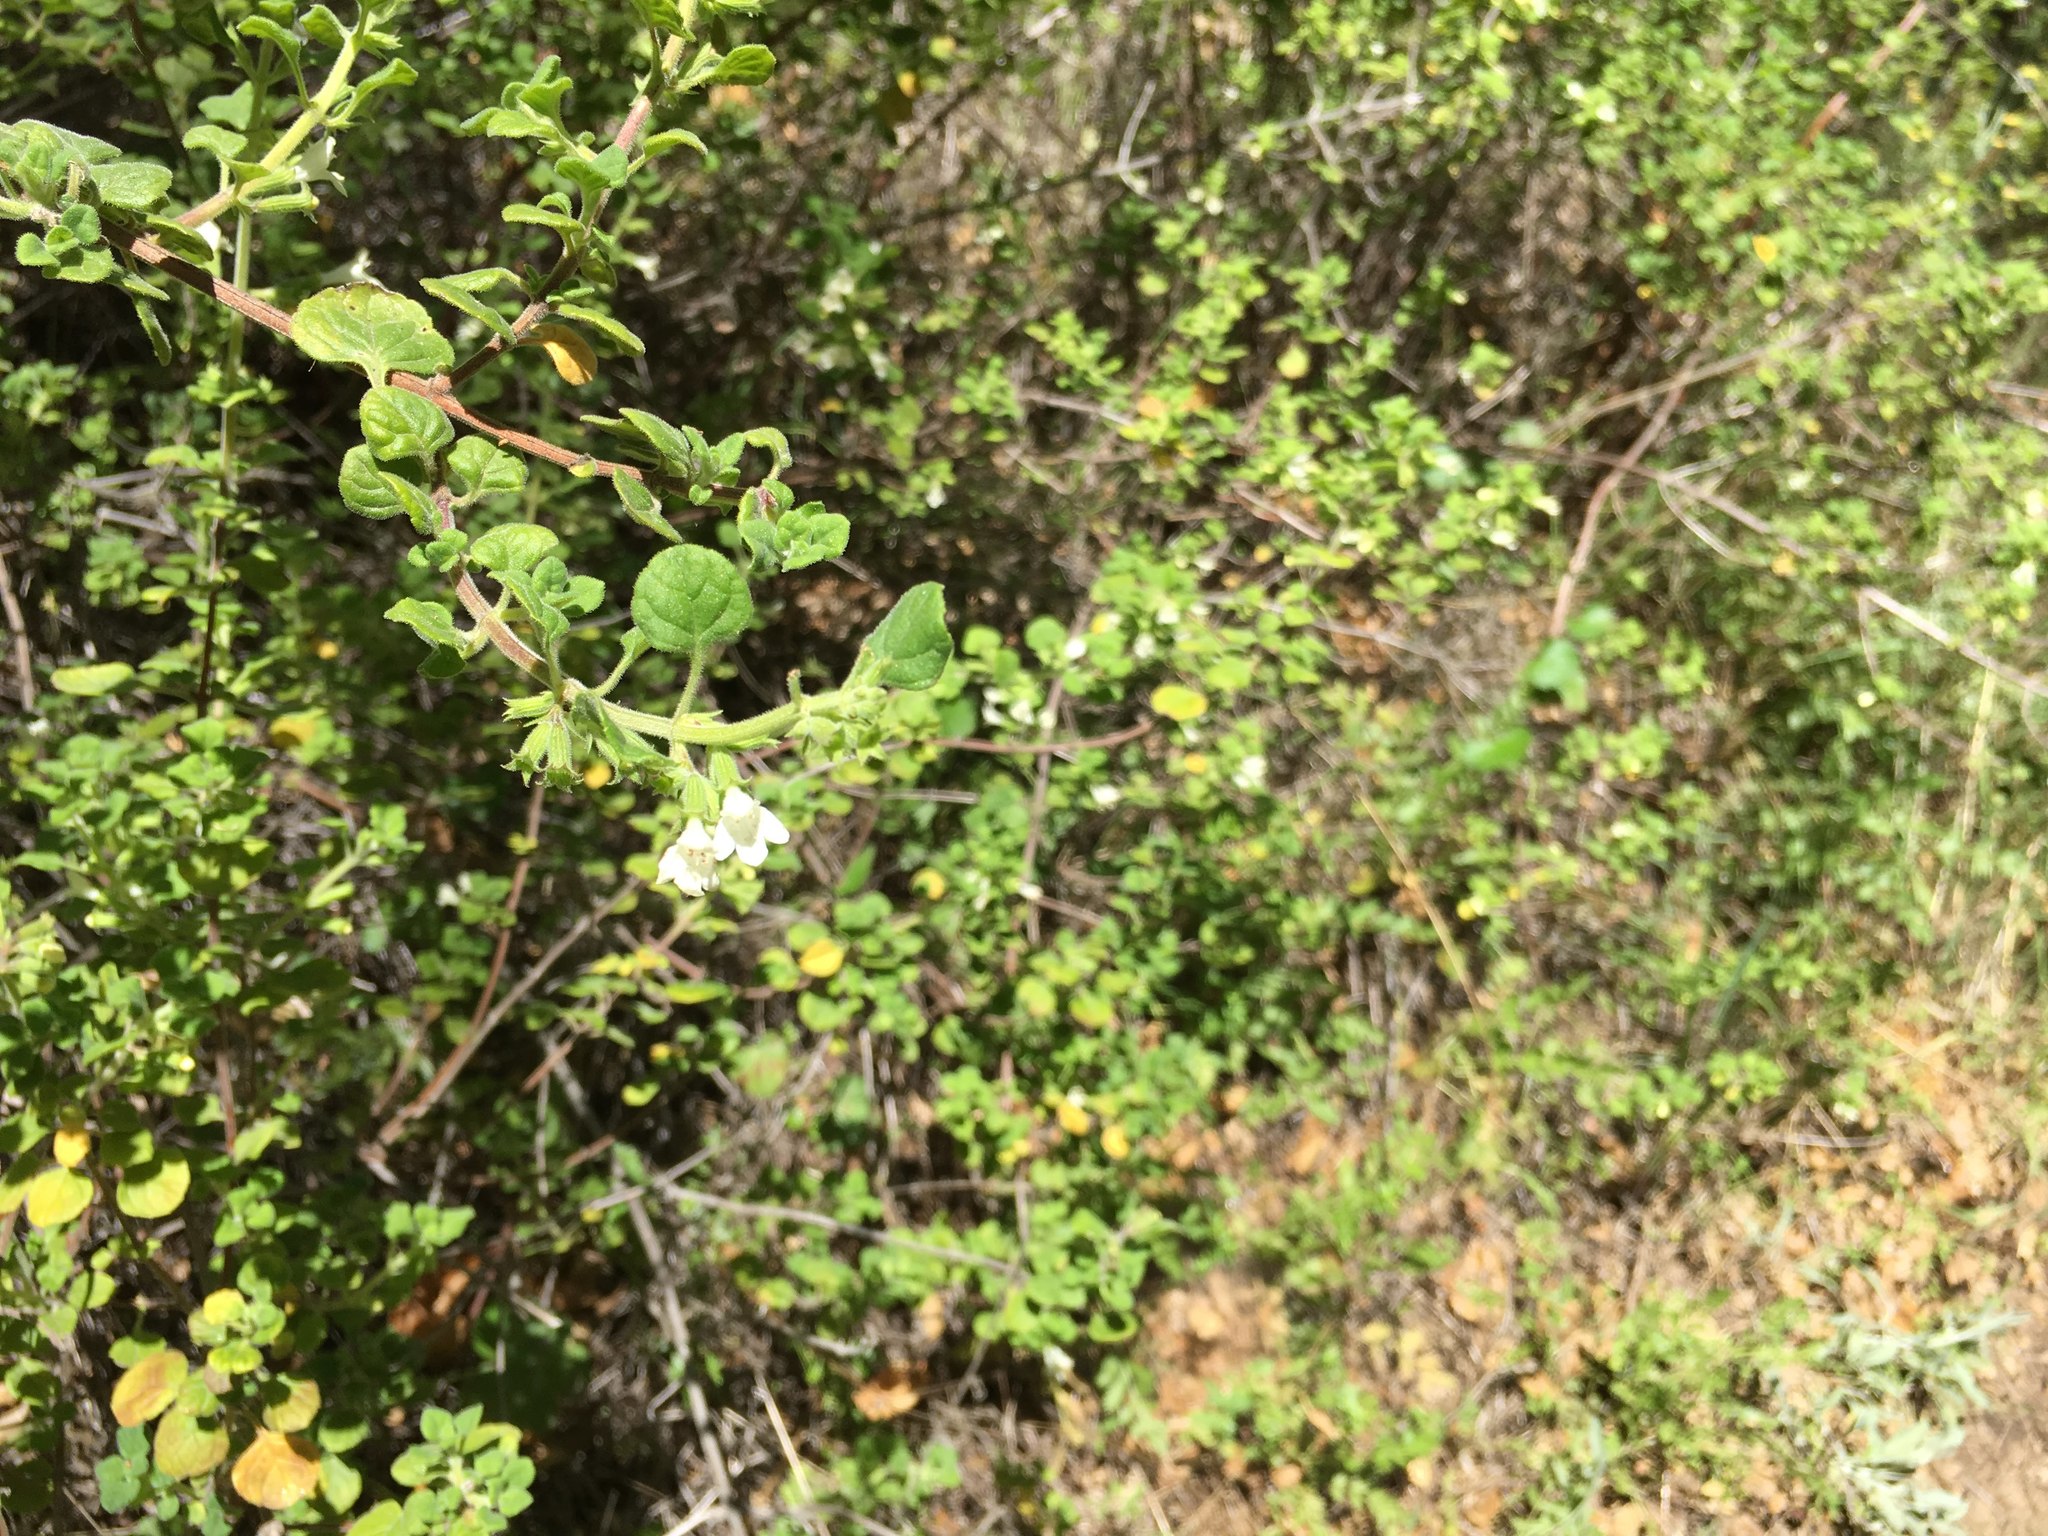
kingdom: Plantae
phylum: Tracheophyta
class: Magnoliopsida
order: Lamiales
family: Lamiaceae
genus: Clinopodium
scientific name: Clinopodium chandleri
